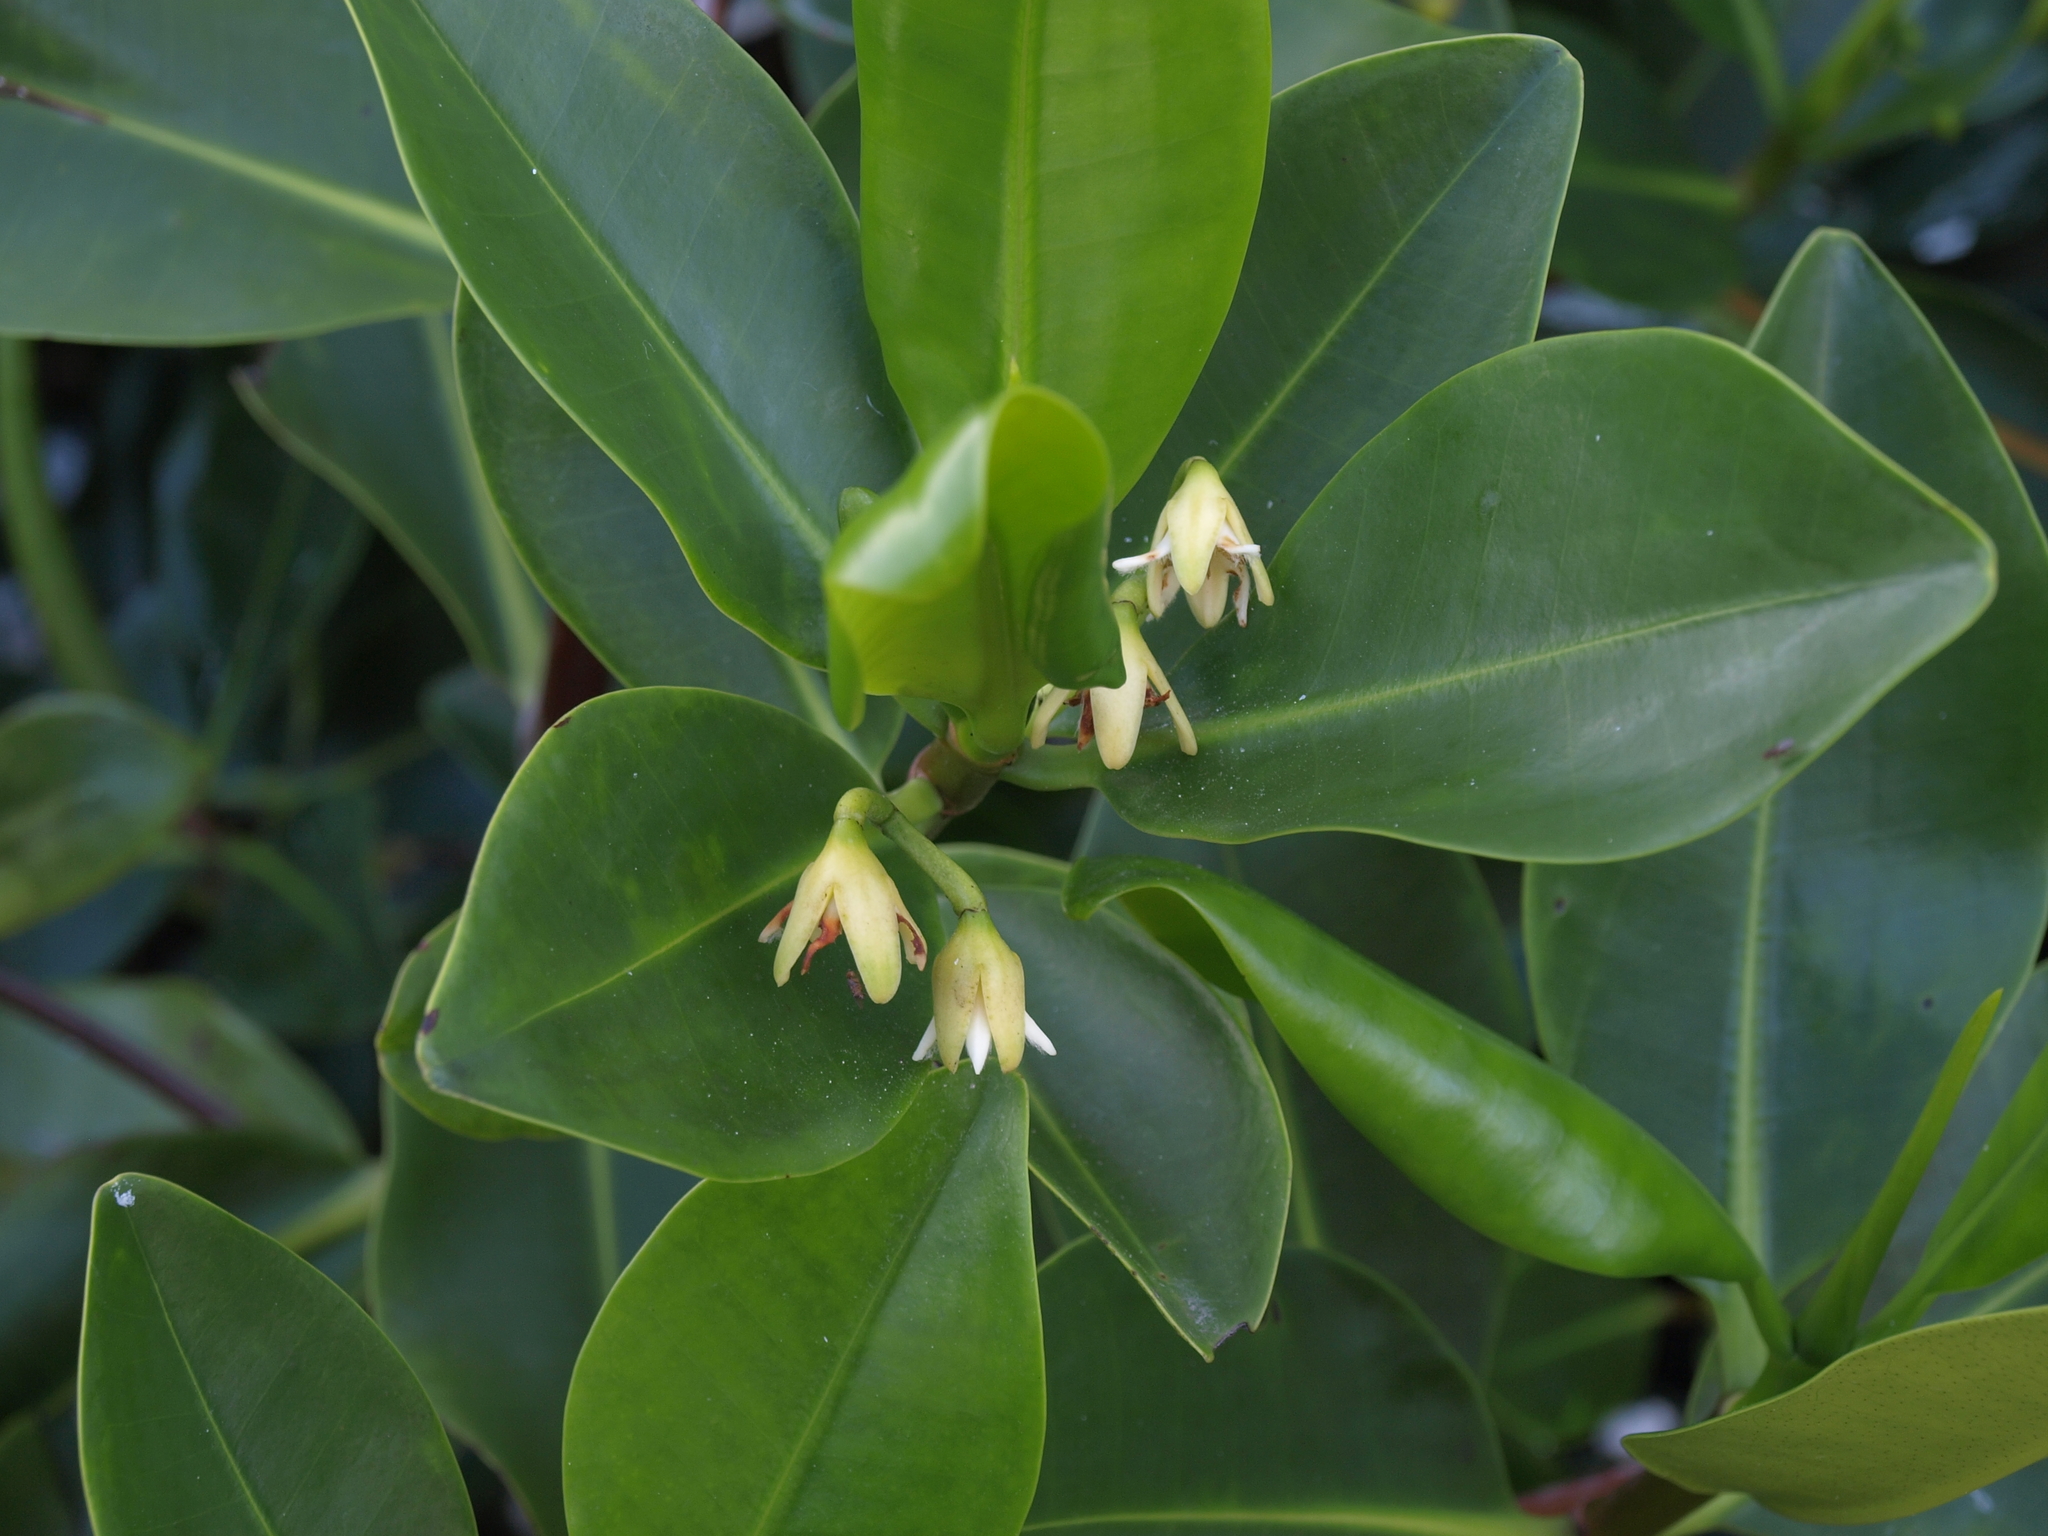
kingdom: Plantae
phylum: Tracheophyta
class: Magnoliopsida
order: Malpighiales
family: Rhizophoraceae
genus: Rhizophora
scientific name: Rhizophora mangle
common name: Red mangrove
